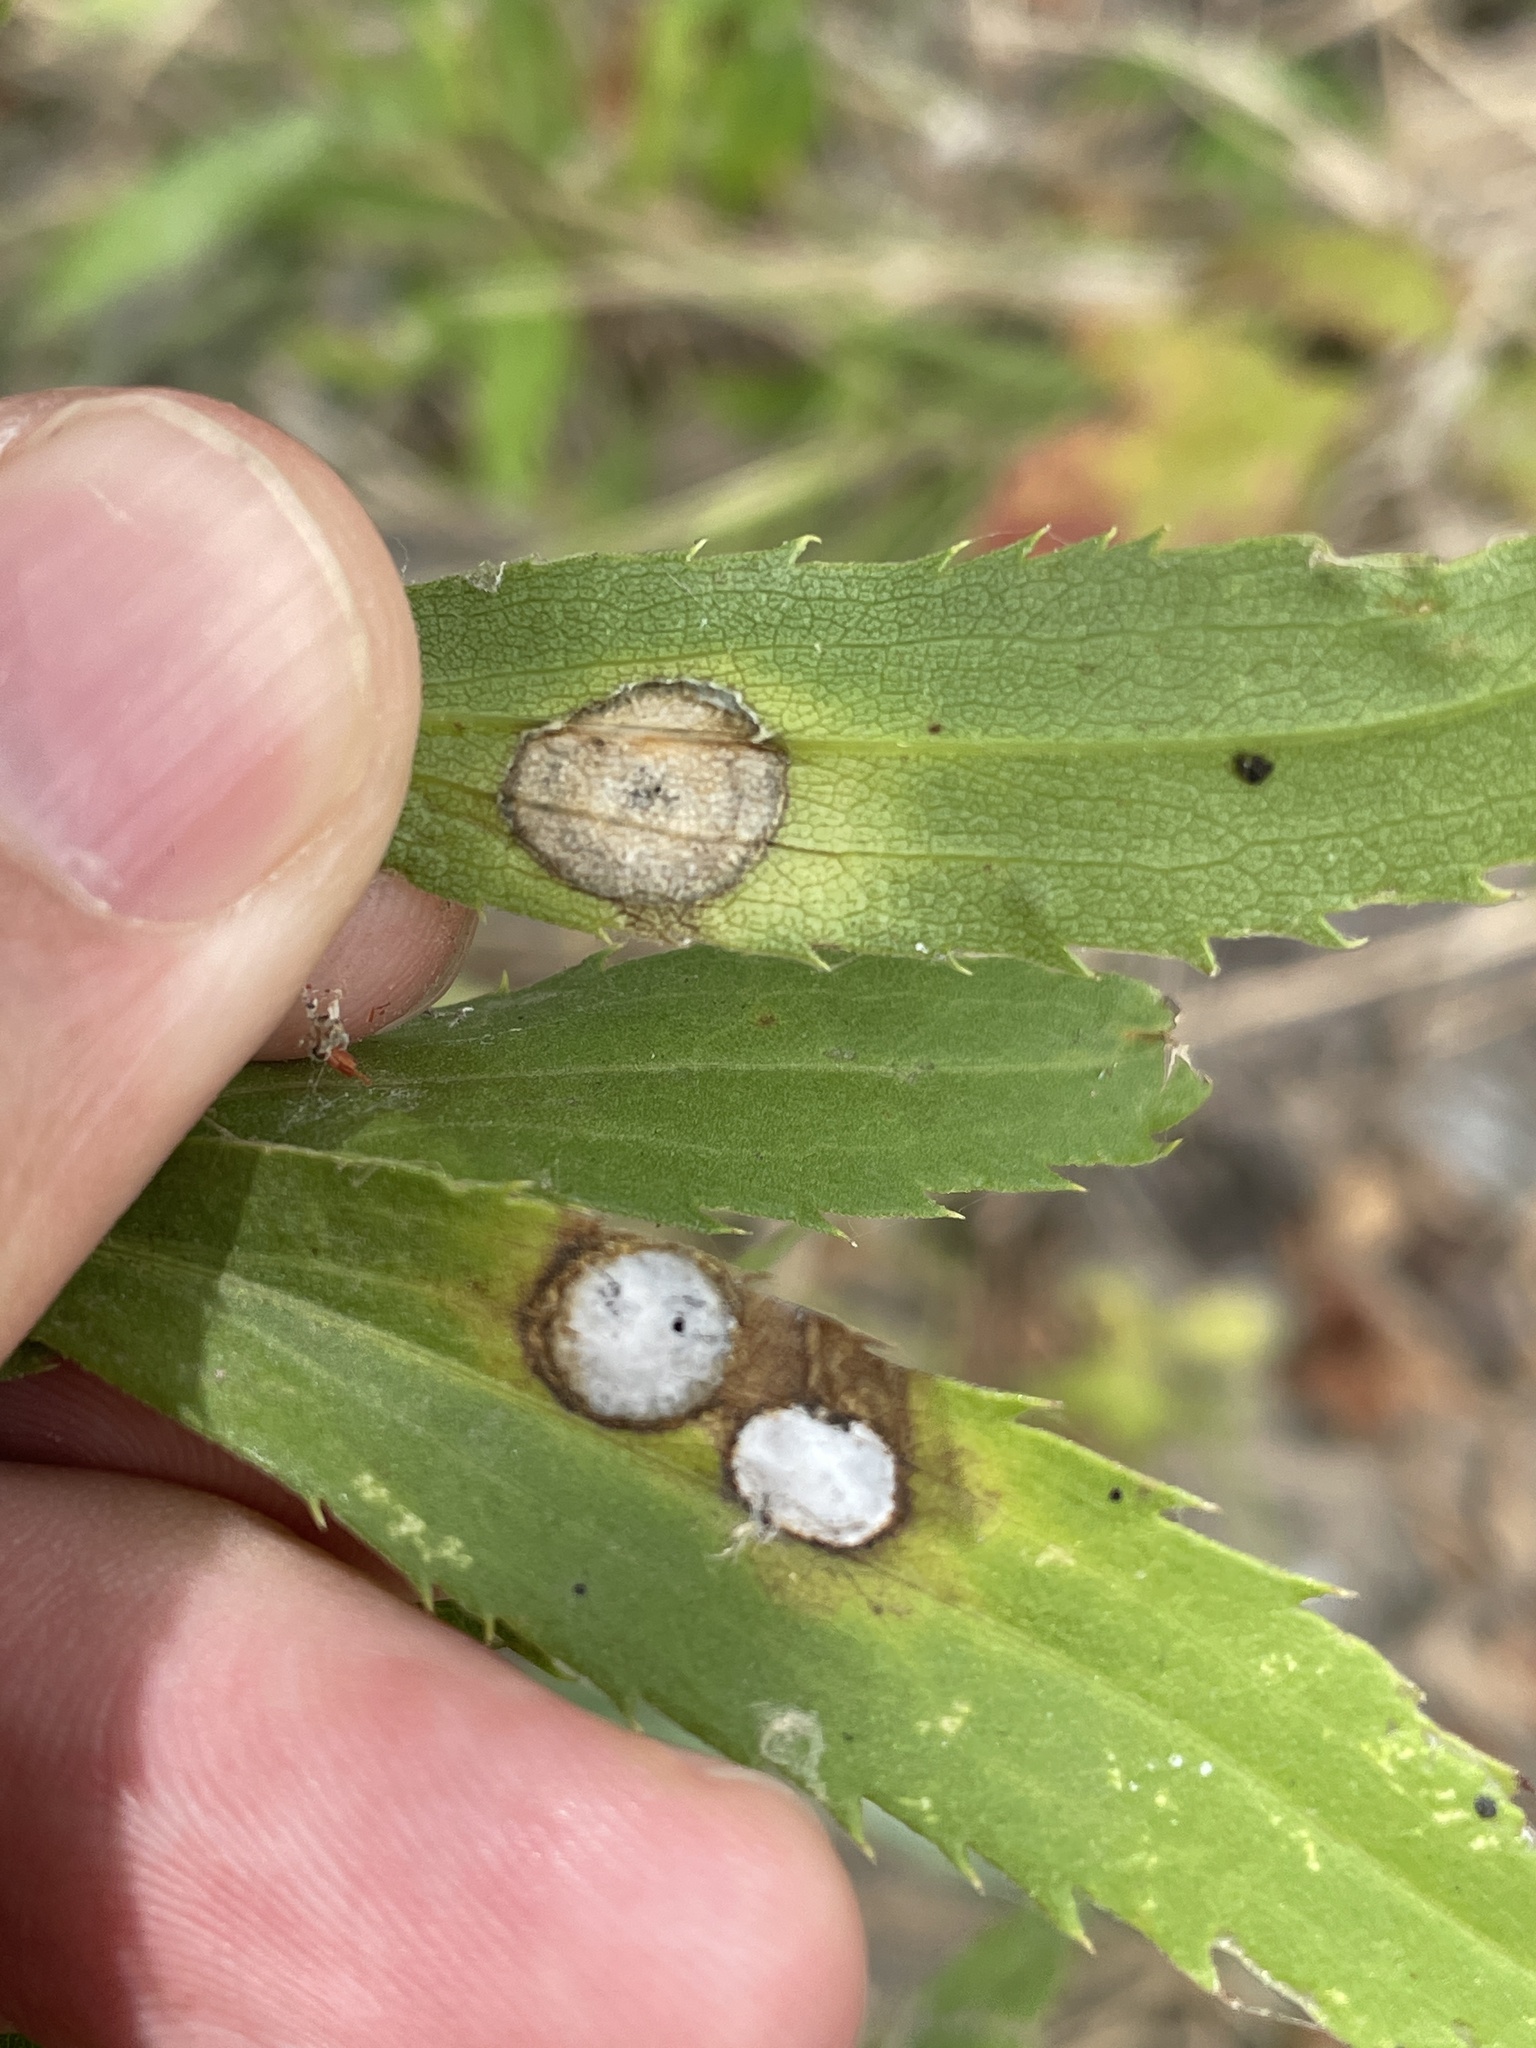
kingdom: Animalia
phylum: Arthropoda
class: Insecta
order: Diptera
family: Cecidomyiidae
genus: Asteromyia
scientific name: Asteromyia carbonifera
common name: Carbonifera goldenrod gall midge
